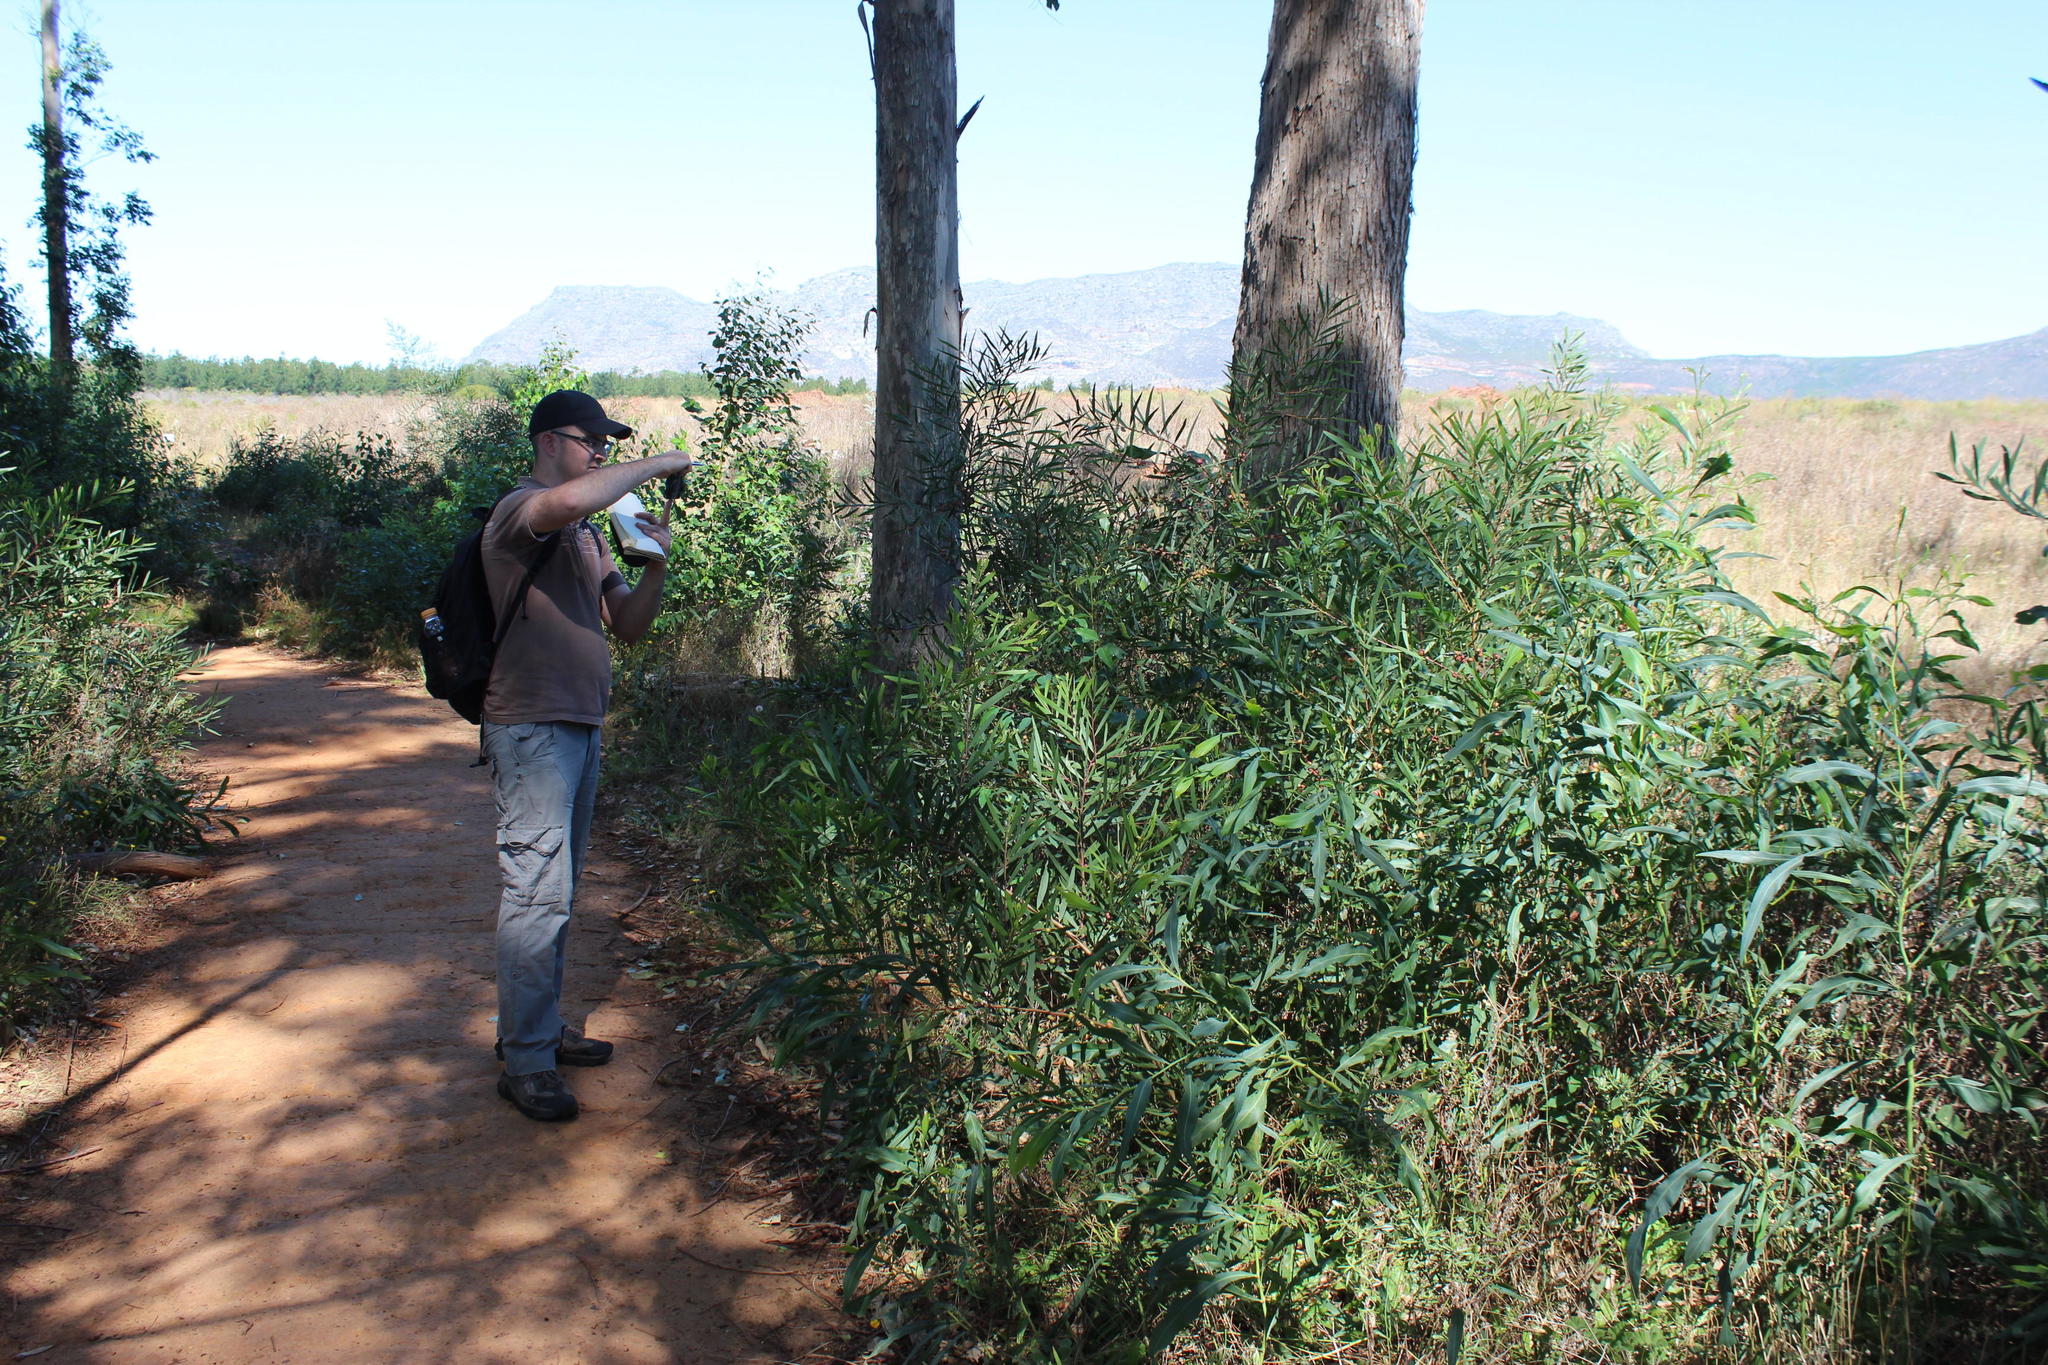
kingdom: Plantae
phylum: Tracheophyta
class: Magnoliopsida
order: Fabales
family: Fabaceae
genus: Acacia
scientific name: Acacia longifolia
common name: Sydney golden wattle
